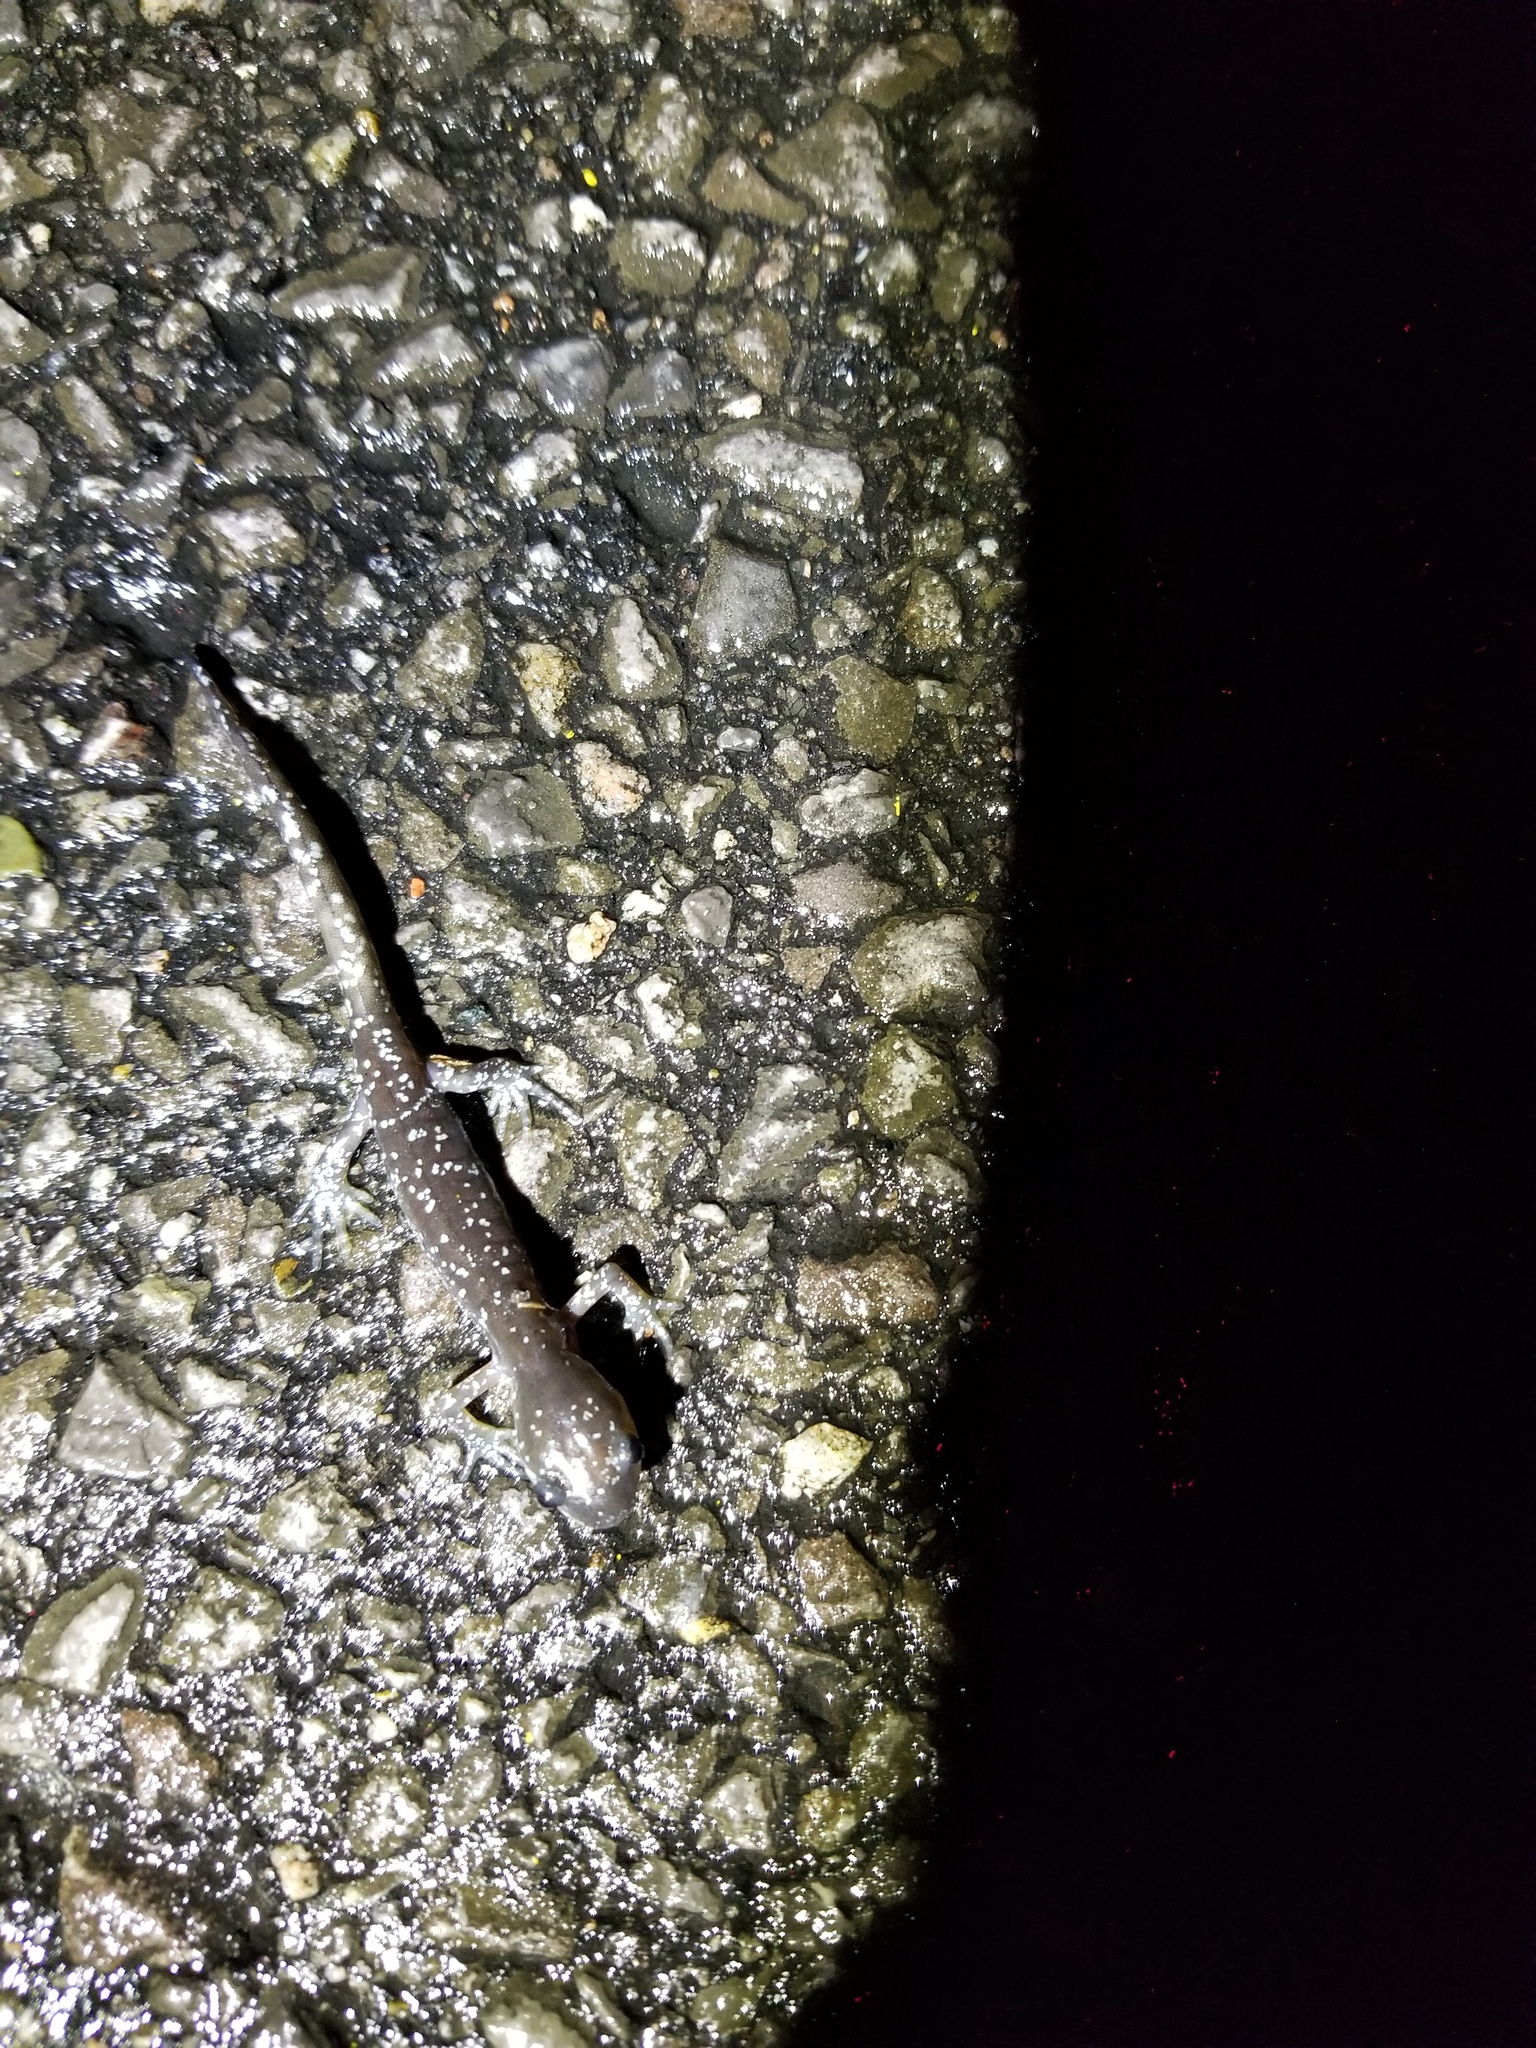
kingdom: Animalia
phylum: Chordata
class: Amphibia
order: Caudata
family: Ambystomatidae
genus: Ambystoma
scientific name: Ambystoma laterale
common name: Blue-spotted salamander
